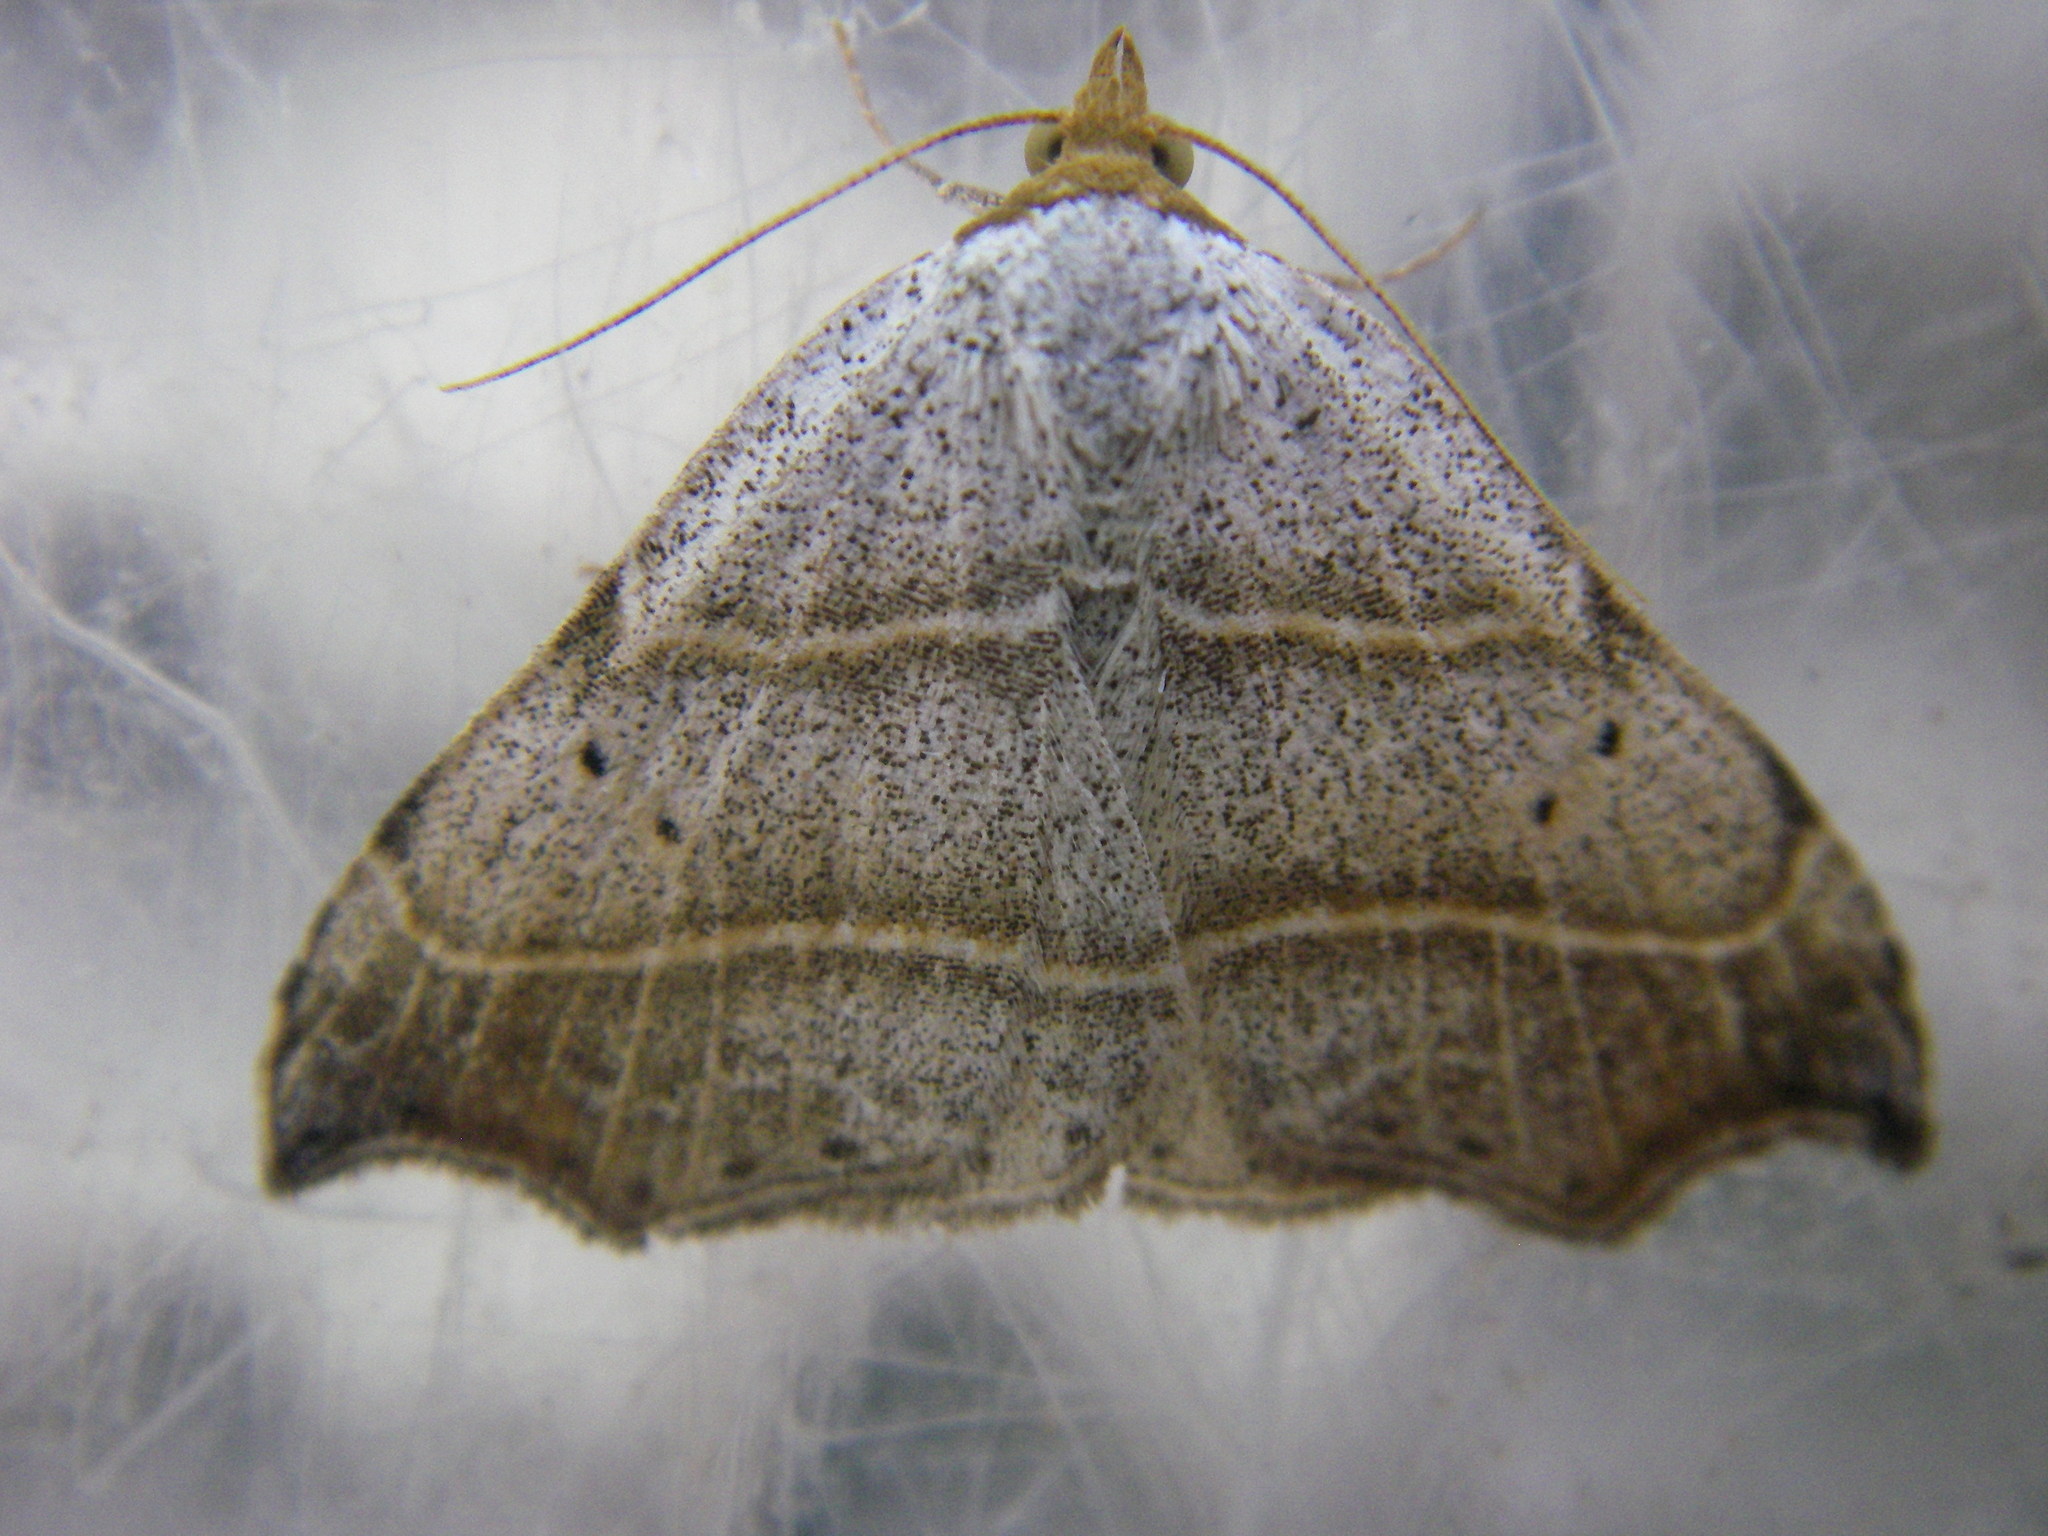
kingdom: Animalia
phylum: Arthropoda
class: Insecta
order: Lepidoptera
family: Erebidae
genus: Laspeyria
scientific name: Laspeyria flexula
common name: Beautiful hook-tip
